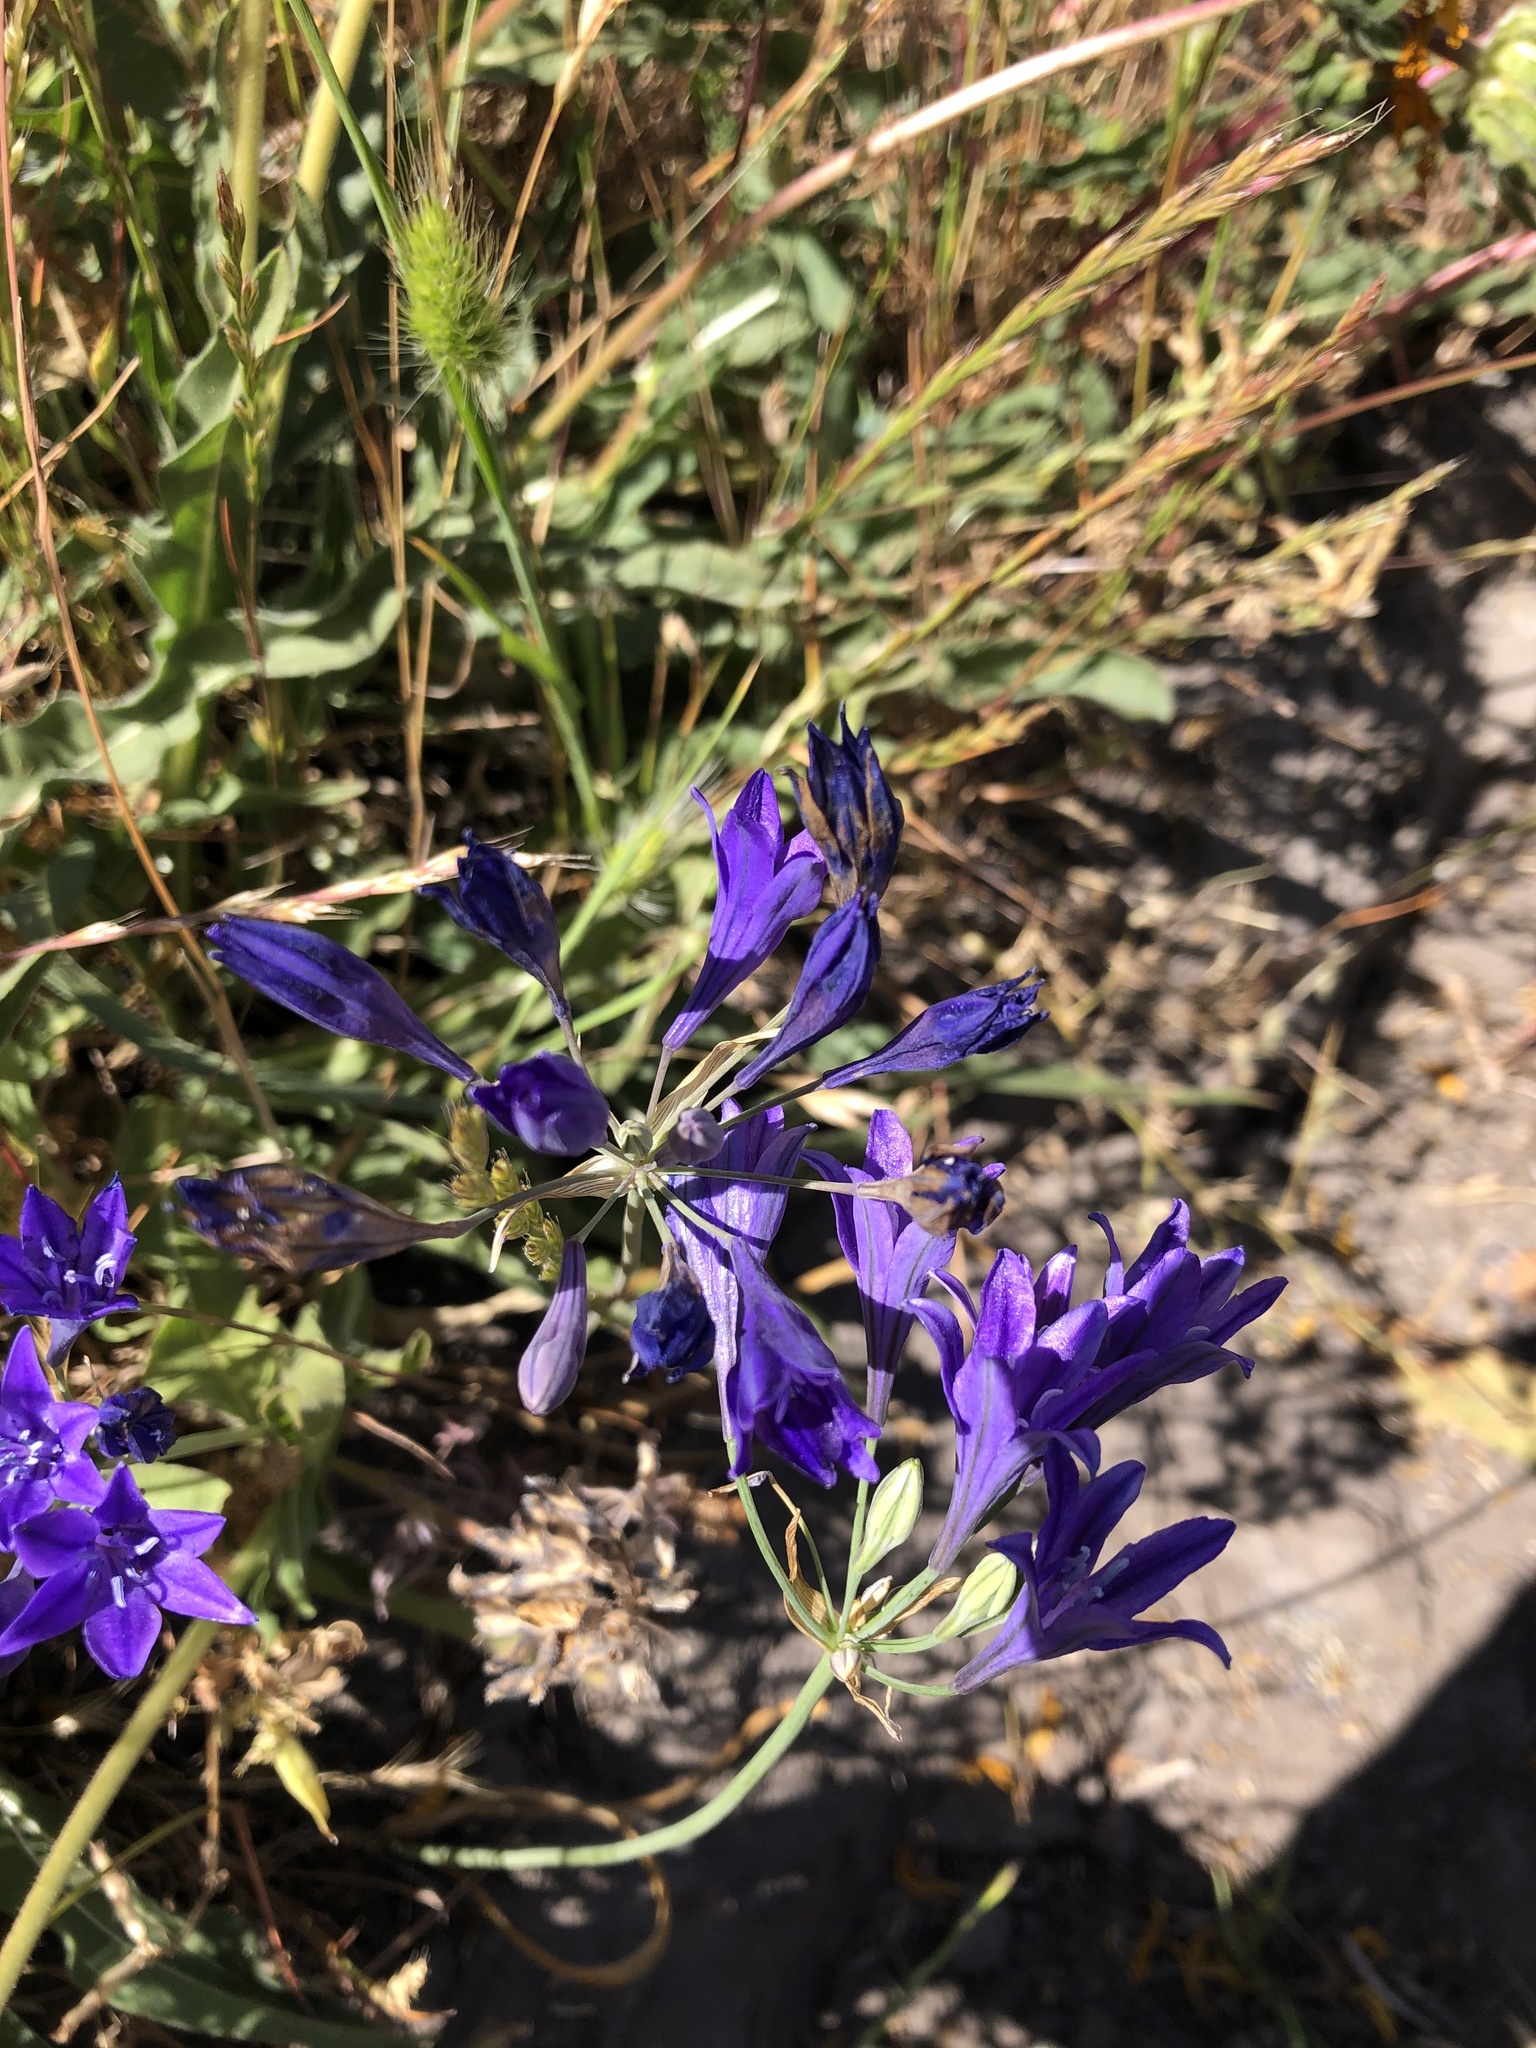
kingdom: Plantae
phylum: Tracheophyta
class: Liliopsida
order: Asparagales
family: Asparagaceae
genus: Triteleia
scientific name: Triteleia laxa
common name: Triplet-lily
